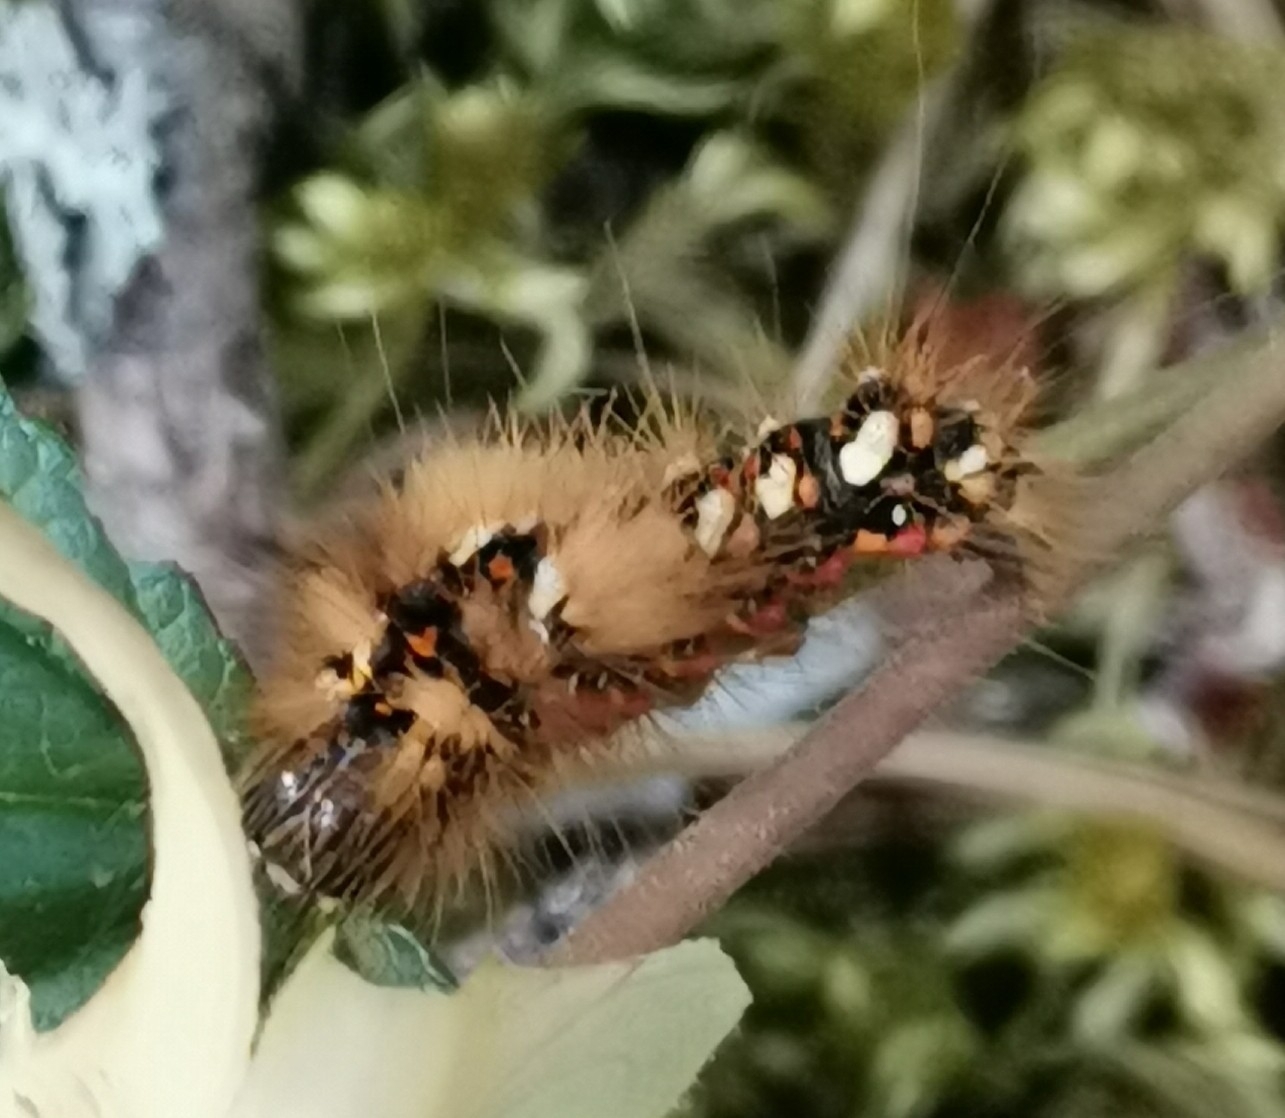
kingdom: Animalia
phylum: Arthropoda
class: Insecta
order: Lepidoptera
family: Noctuidae
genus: Acronicta
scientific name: Acronicta rumicis
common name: Knot grass
